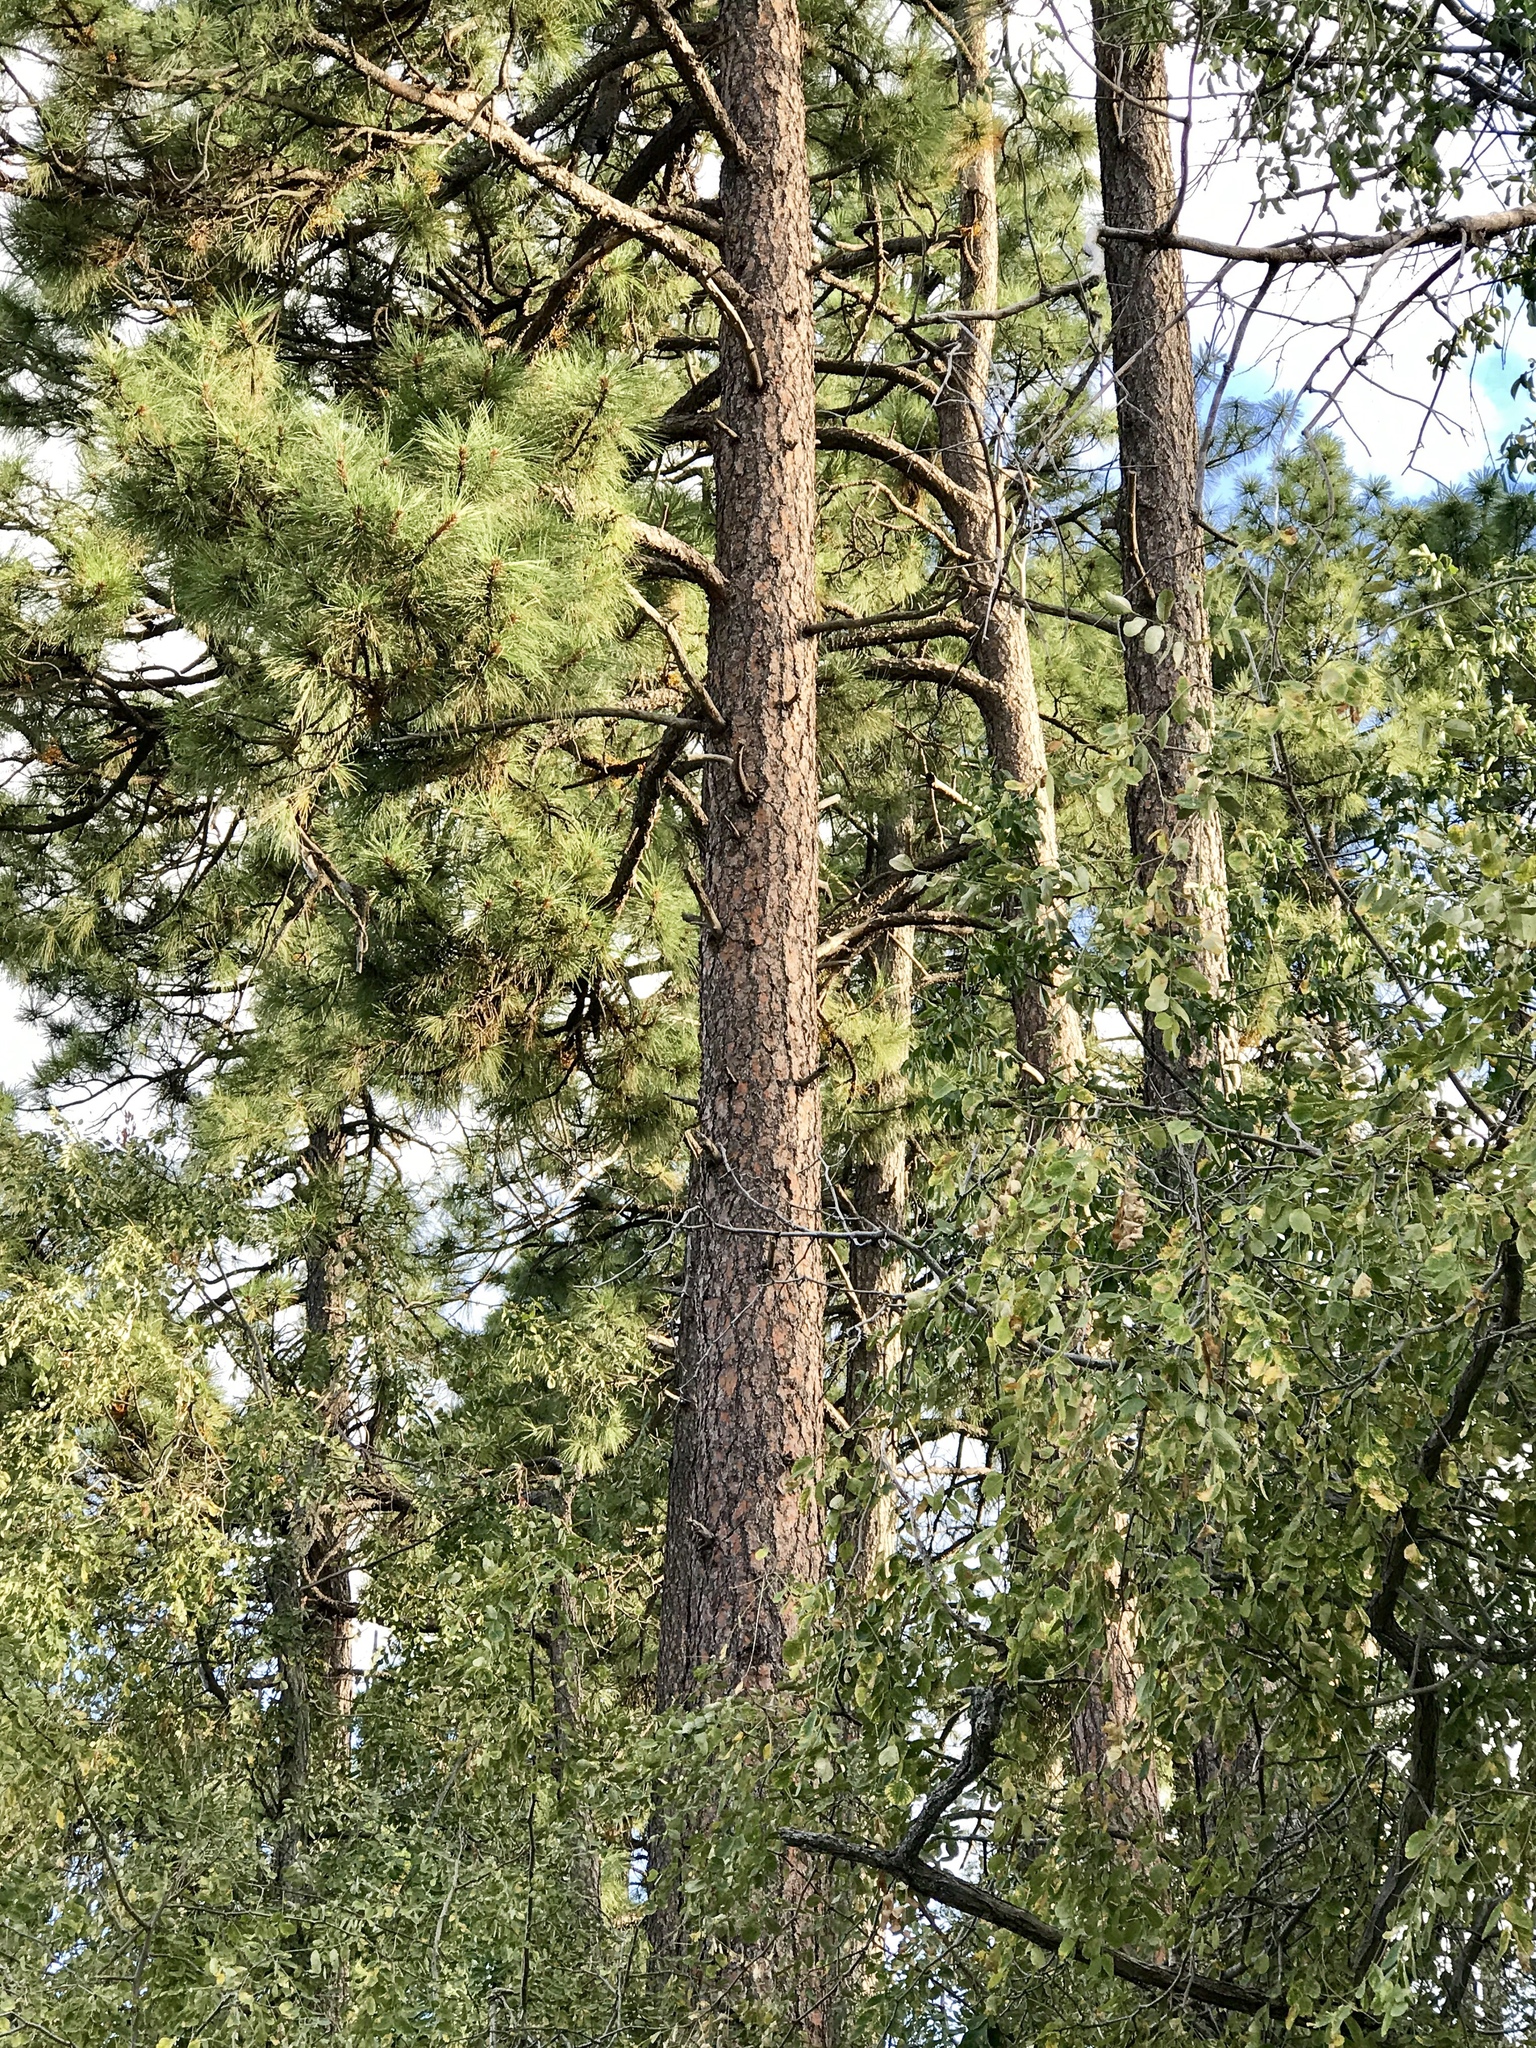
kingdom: Plantae
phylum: Tracheophyta
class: Pinopsida
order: Pinales
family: Pinaceae
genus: Pinus
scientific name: Pinus ponderosa
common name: Western yellow-pine
